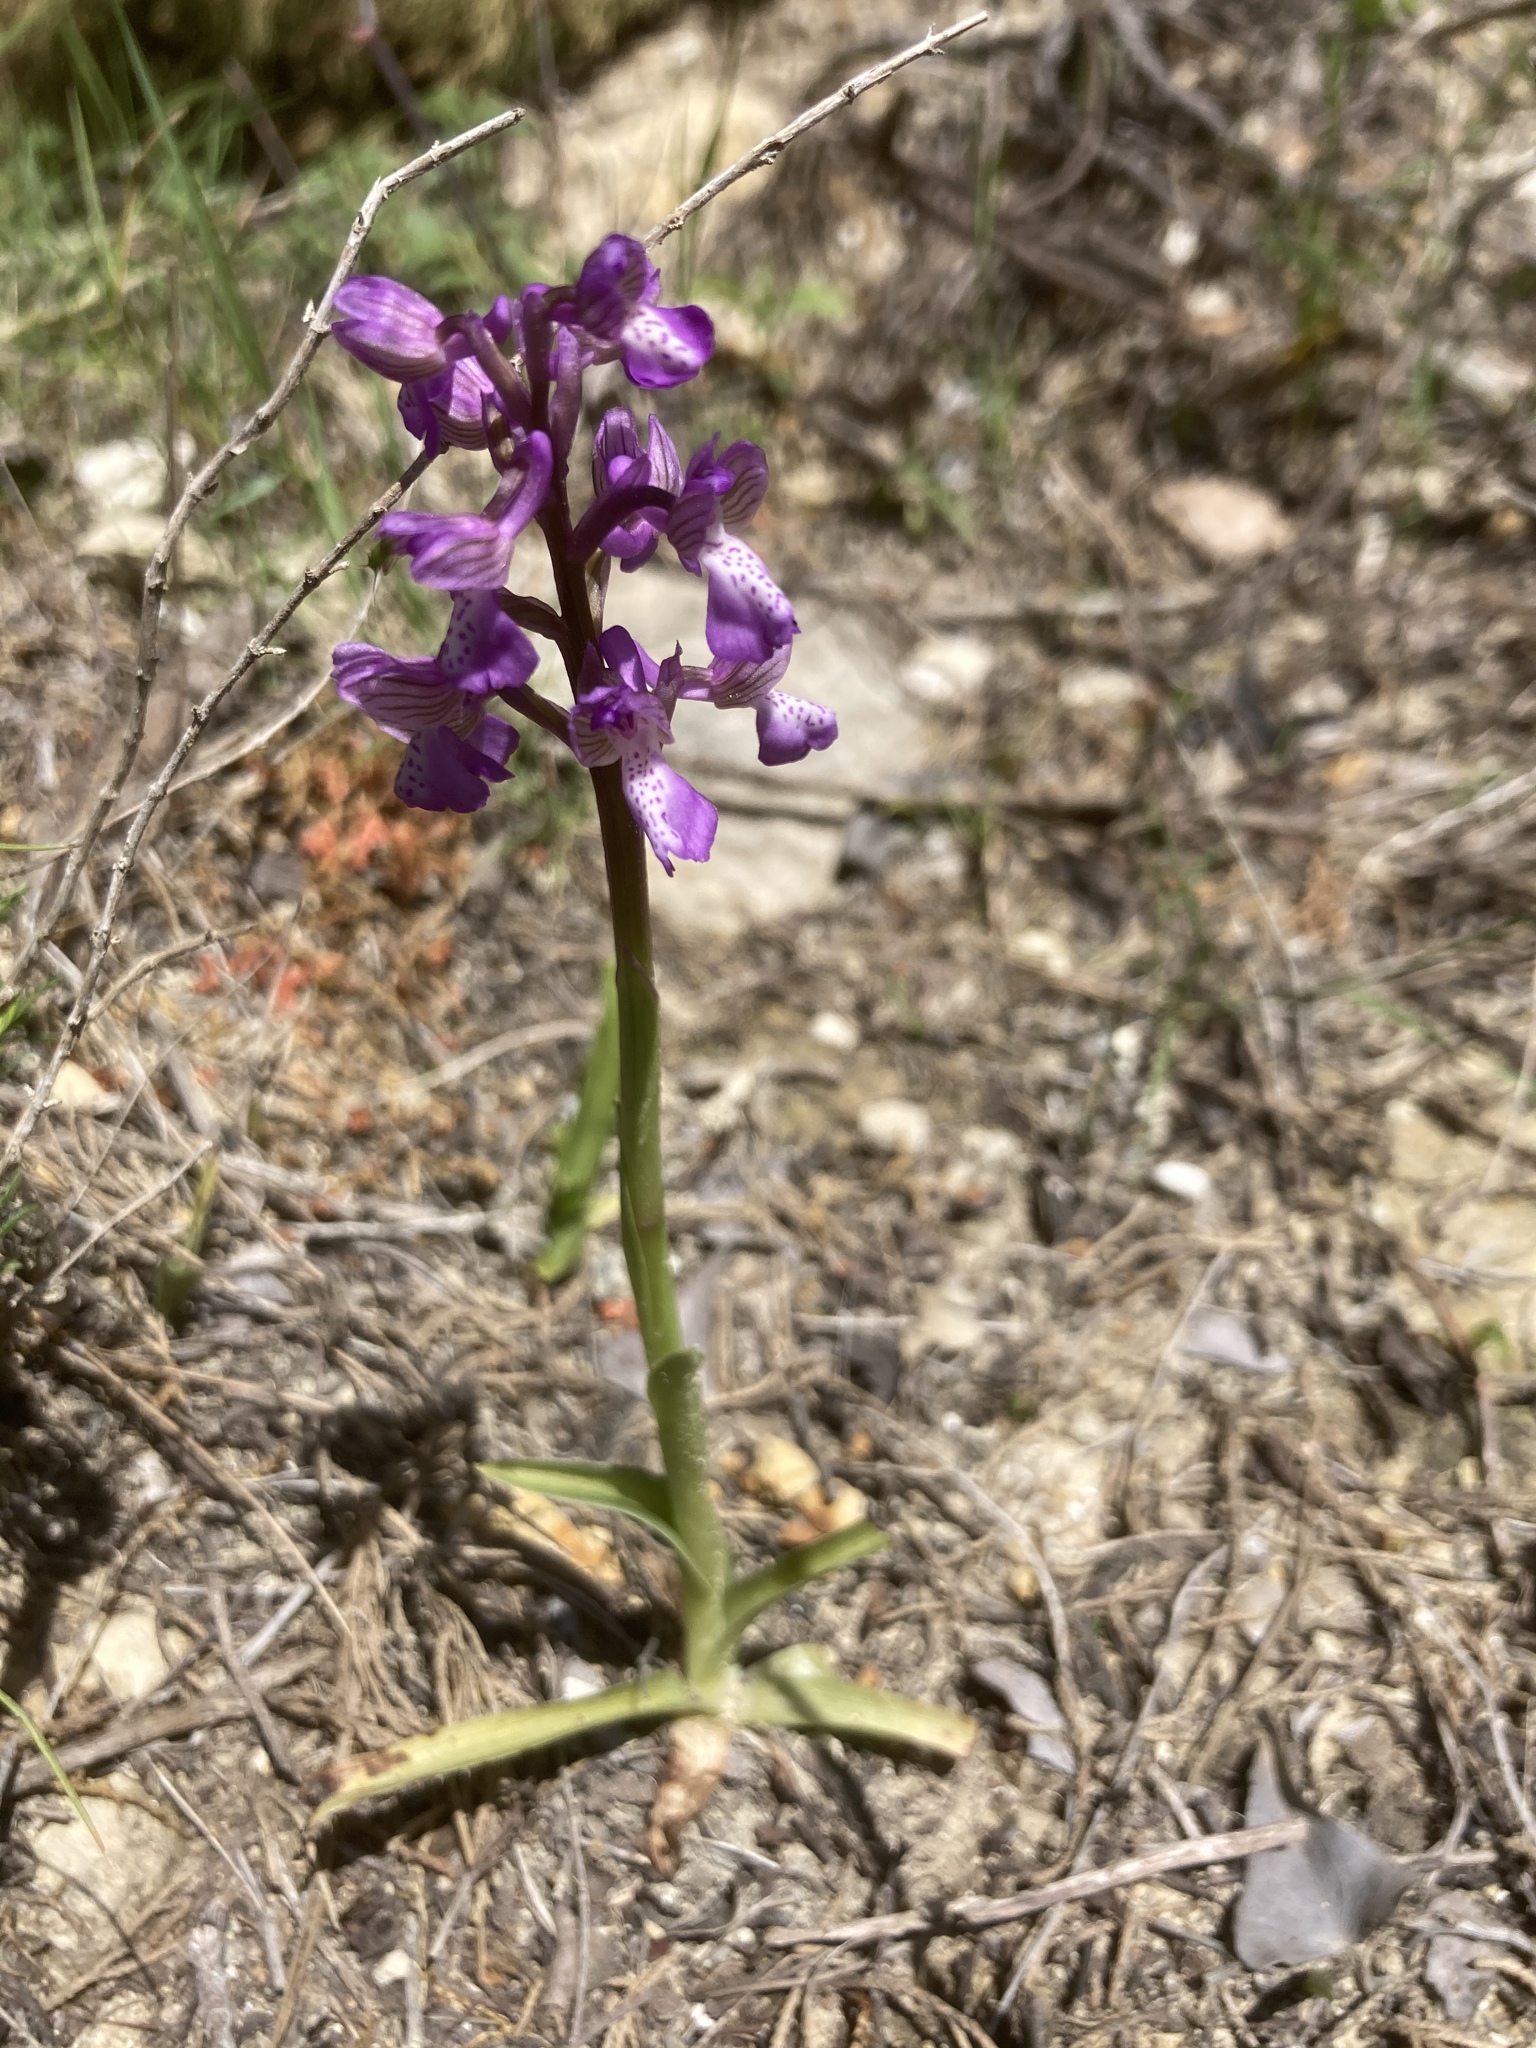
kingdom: Plantae
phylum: Tracheophyta
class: Liliopsida
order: Asparagales
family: Orchidaceae
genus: Anacamptis
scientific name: Anacamptis morio
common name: Green-winged orchid
